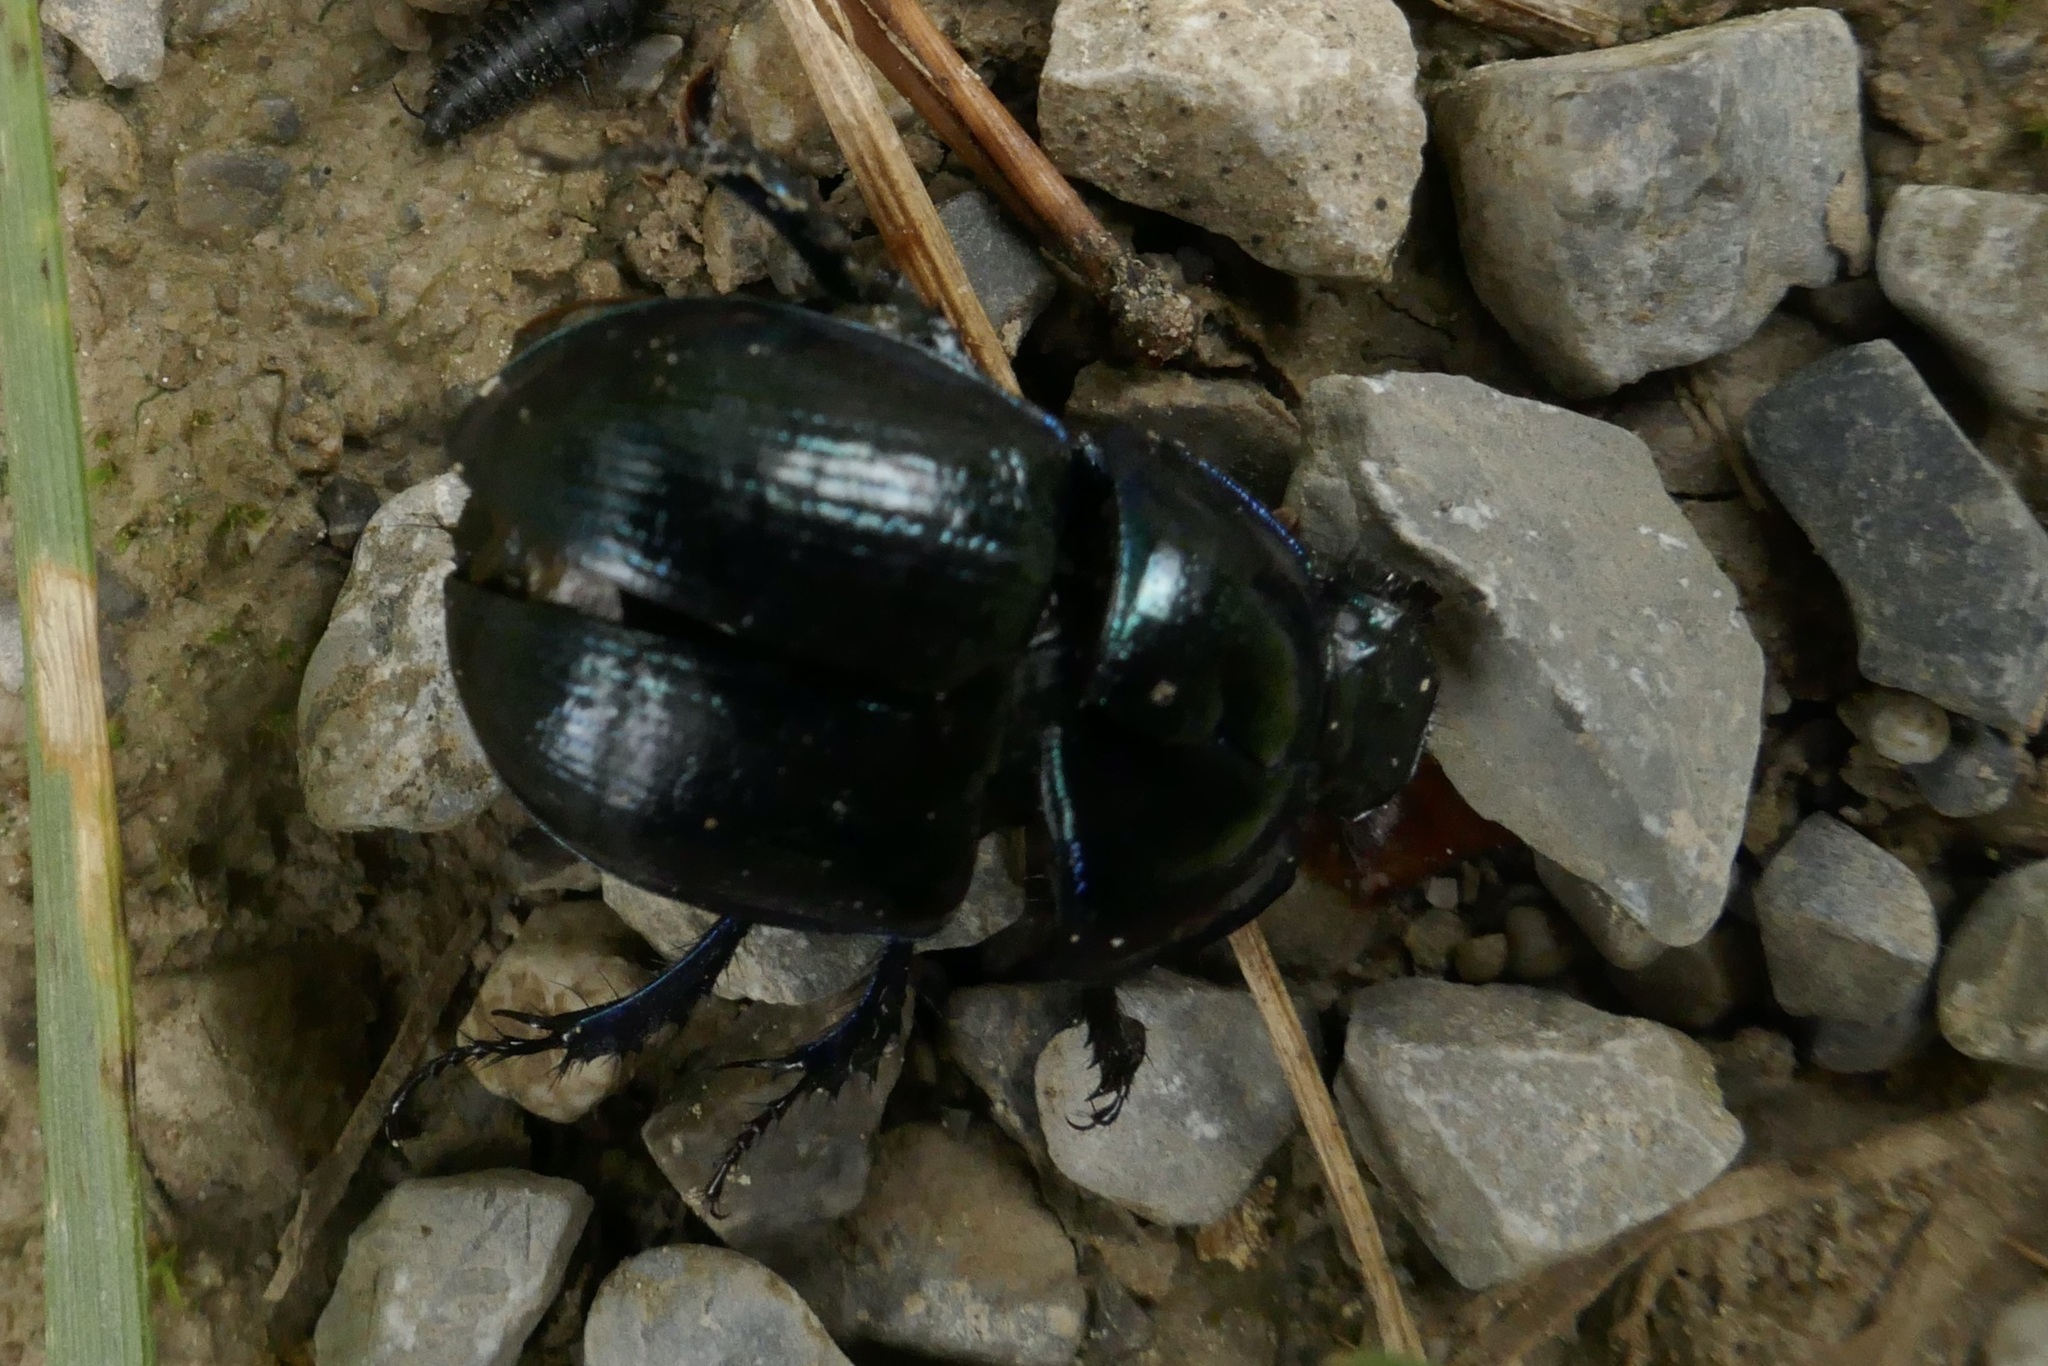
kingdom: Animalia
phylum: Arthropoda
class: Insecta
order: Coleoptera
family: Geotrupidae
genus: Anoplotrupes
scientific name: Anoplotrupes stercorosus
